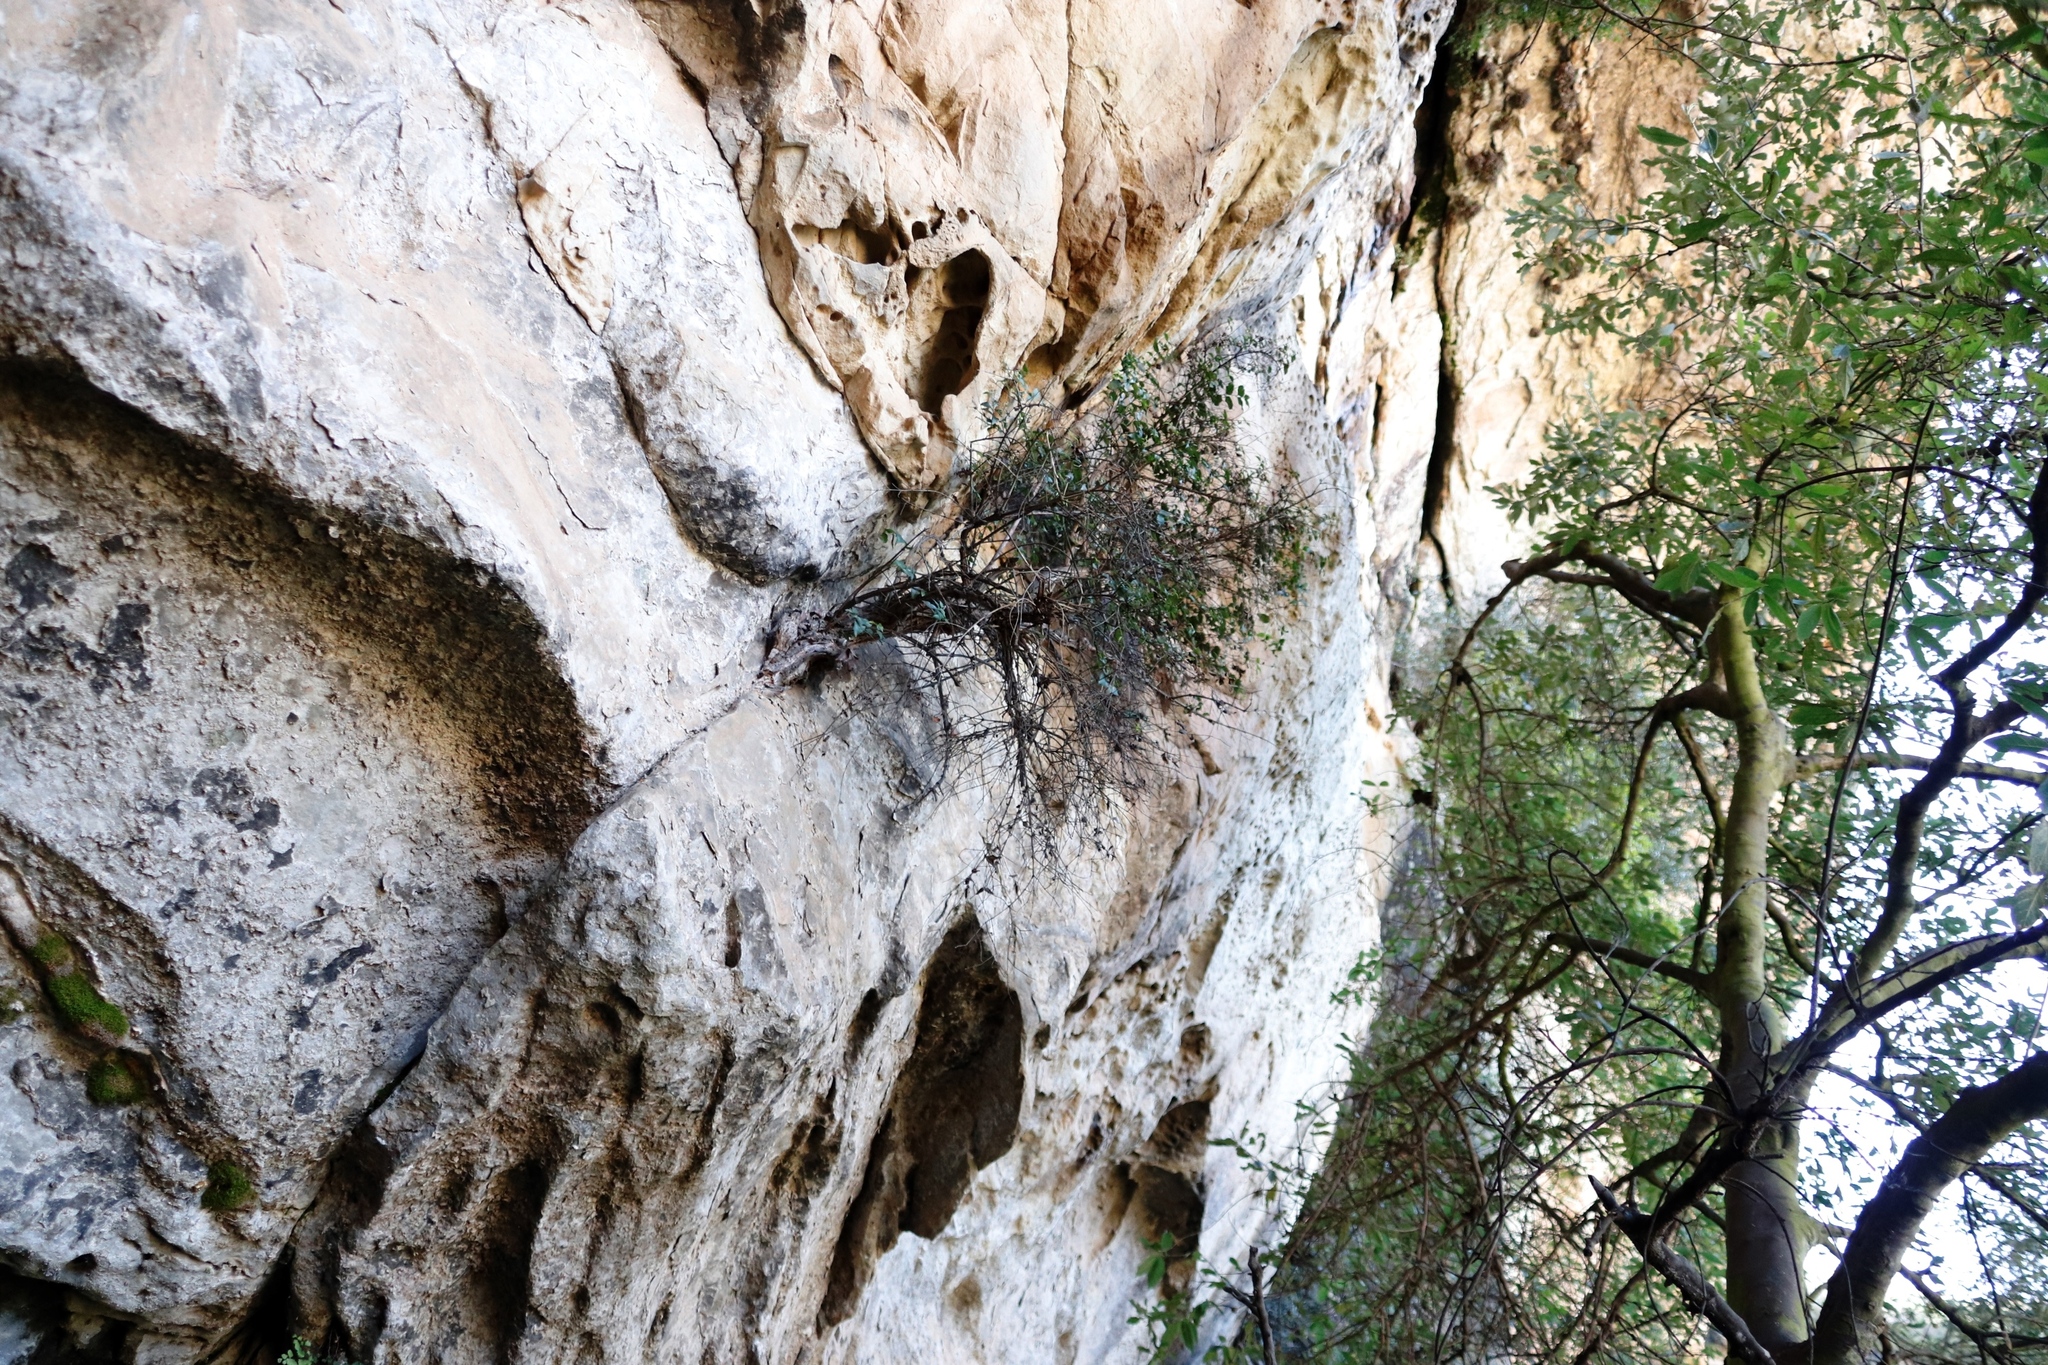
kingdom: Plantae
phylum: Tracheophyta
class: Magnoliopsida
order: Lamiales
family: Stilbaceae
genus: Halleria
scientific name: Halleria lucida
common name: Tree fuschia
